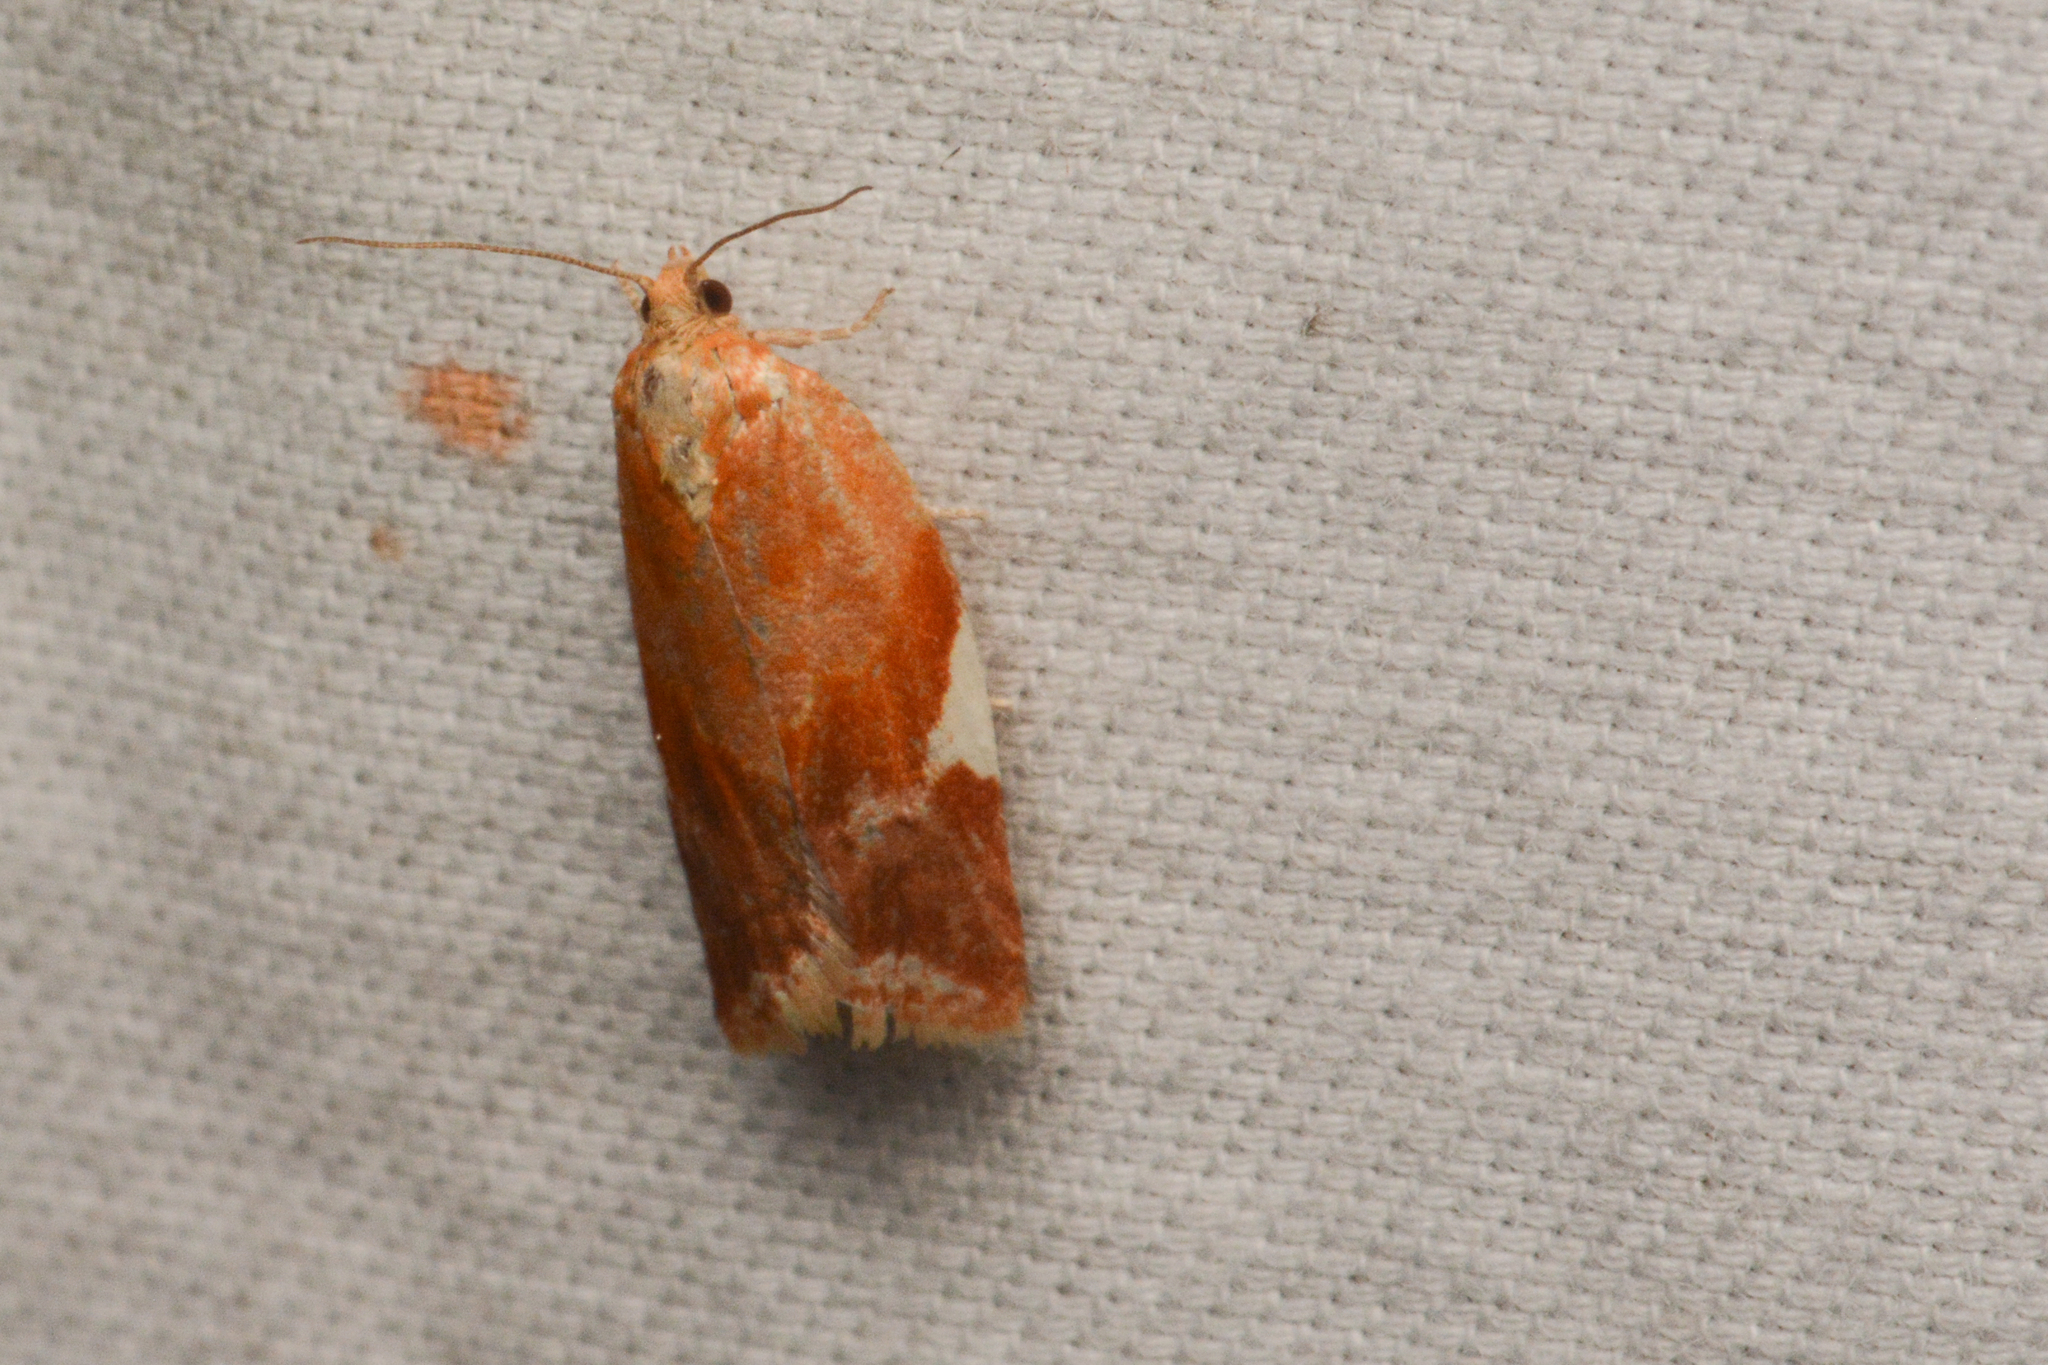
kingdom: Animalia
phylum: Arthropoda
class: Insecta
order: Lepidoptera
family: Tortricidae
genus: Clepsis
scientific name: Clepsis persicana
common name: White triangle tortrix
